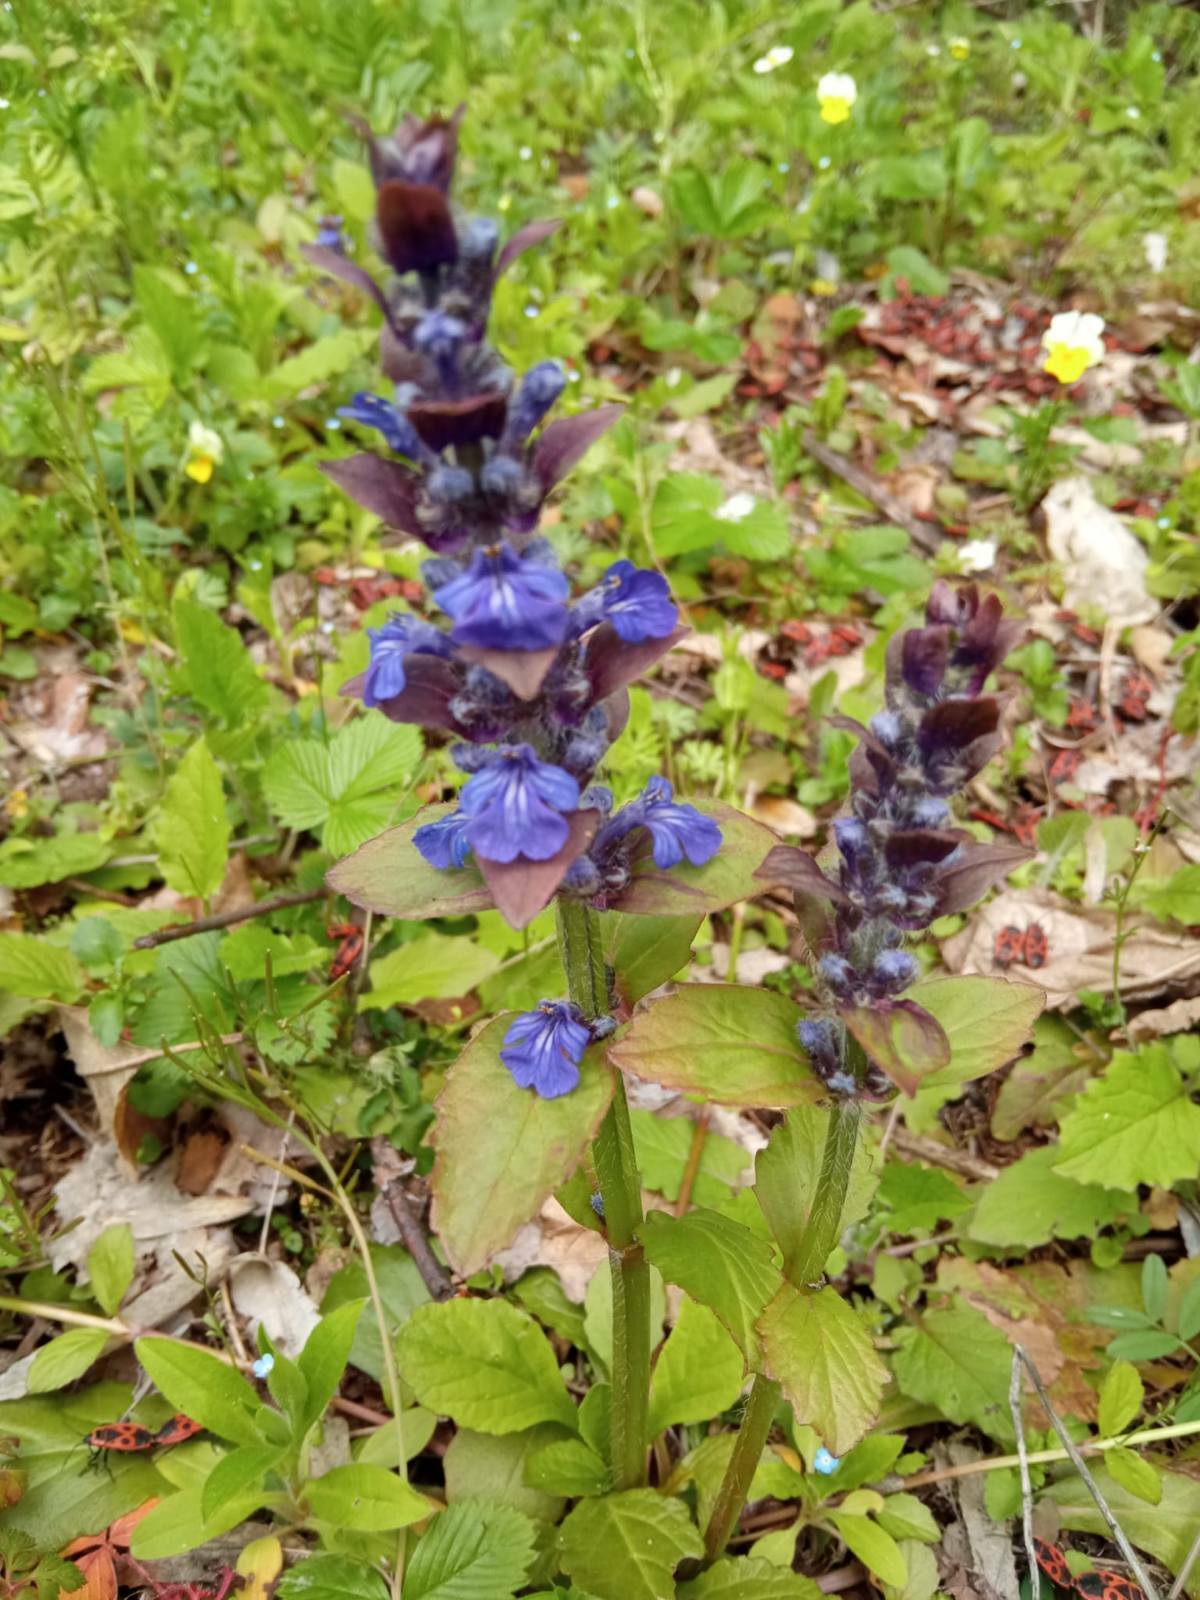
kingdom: Plantae
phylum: Tracheophyta
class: Magnoliopsida
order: Lamiales
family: Lamiaceae
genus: Ajuga
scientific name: Ajuga reptans
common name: Bugle
